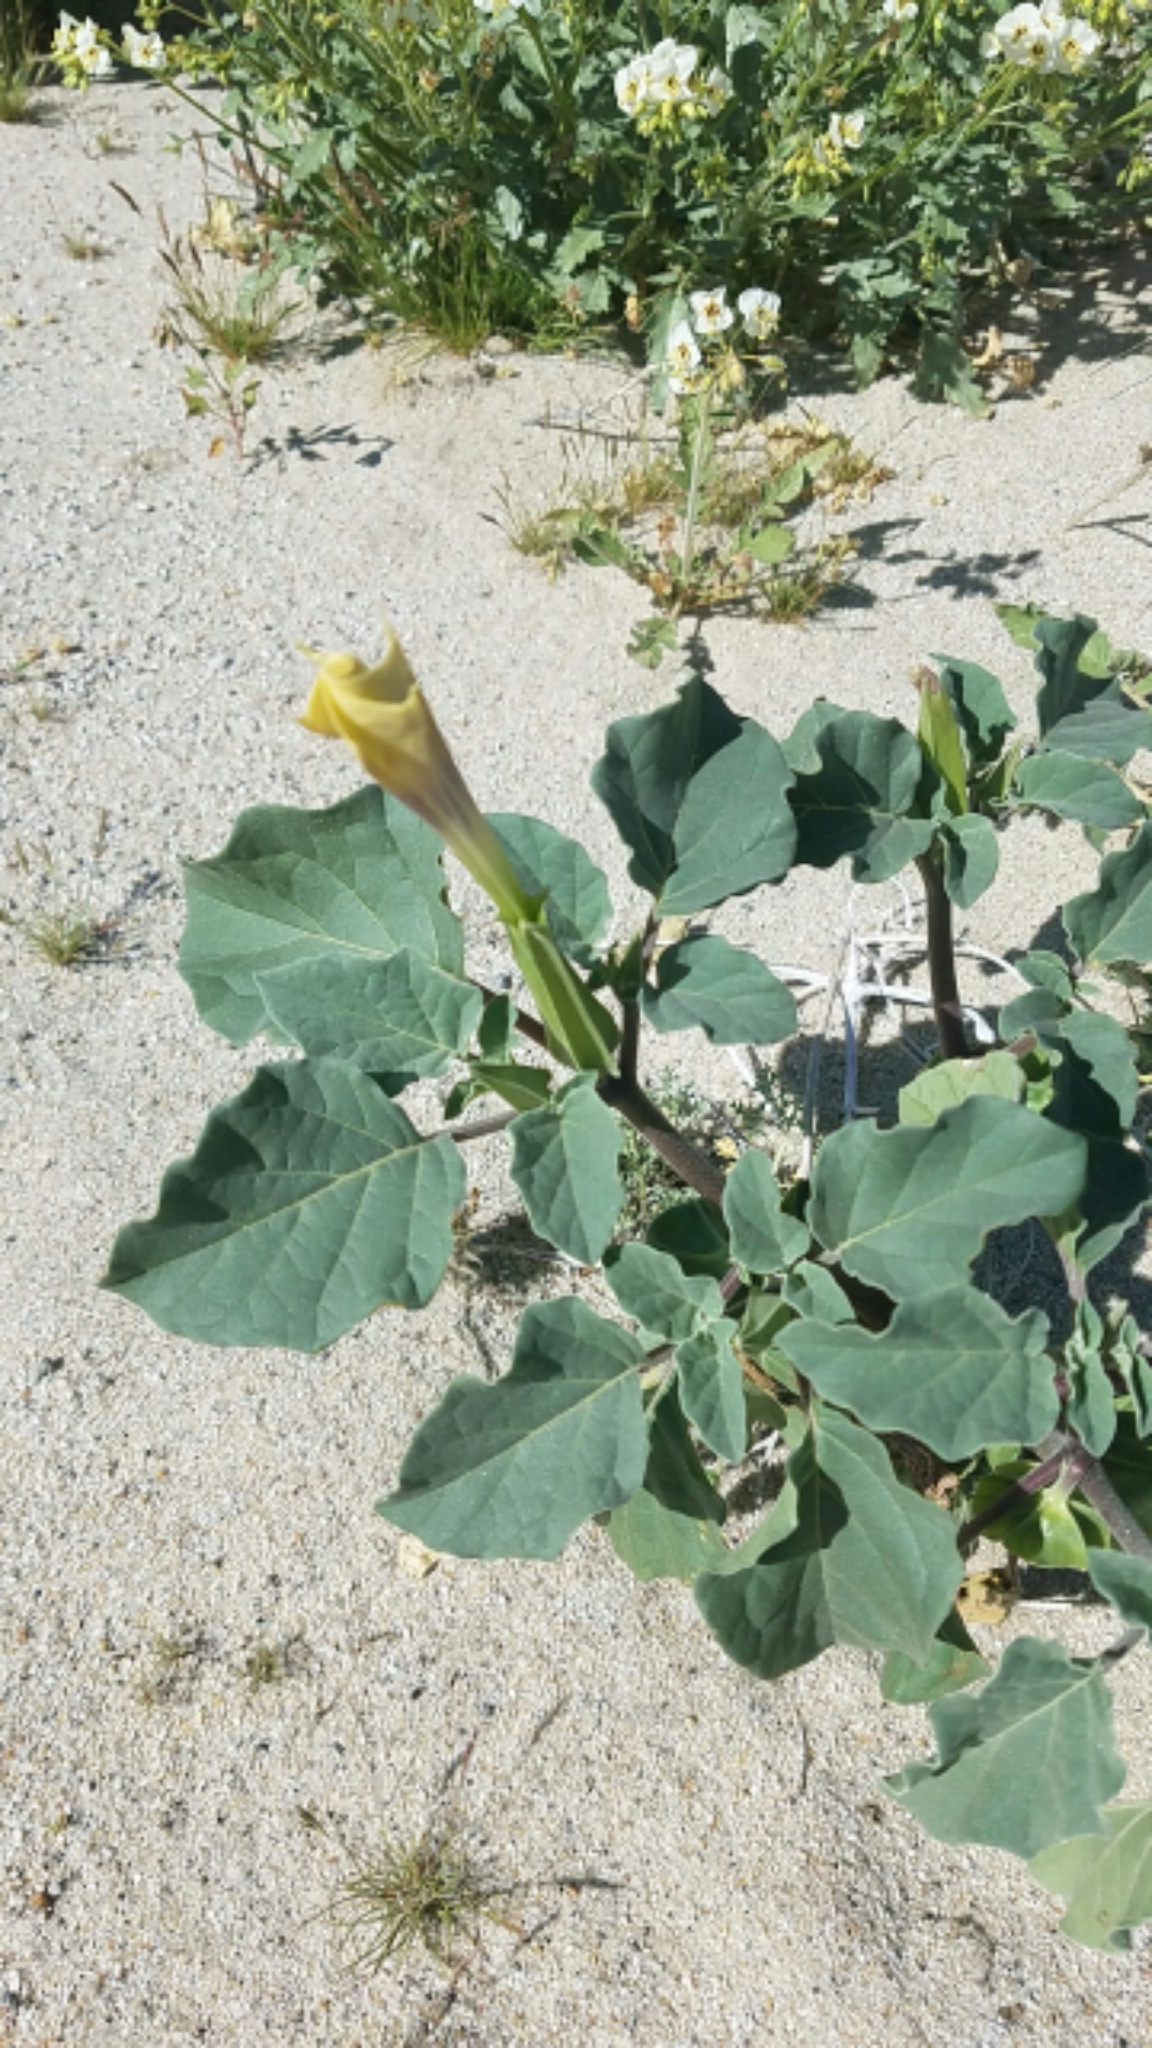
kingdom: Plantae
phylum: Tracheophyta
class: Magnoliopsida
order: Solanales
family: Solanaceae
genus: Datura
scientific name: Datura discolor
